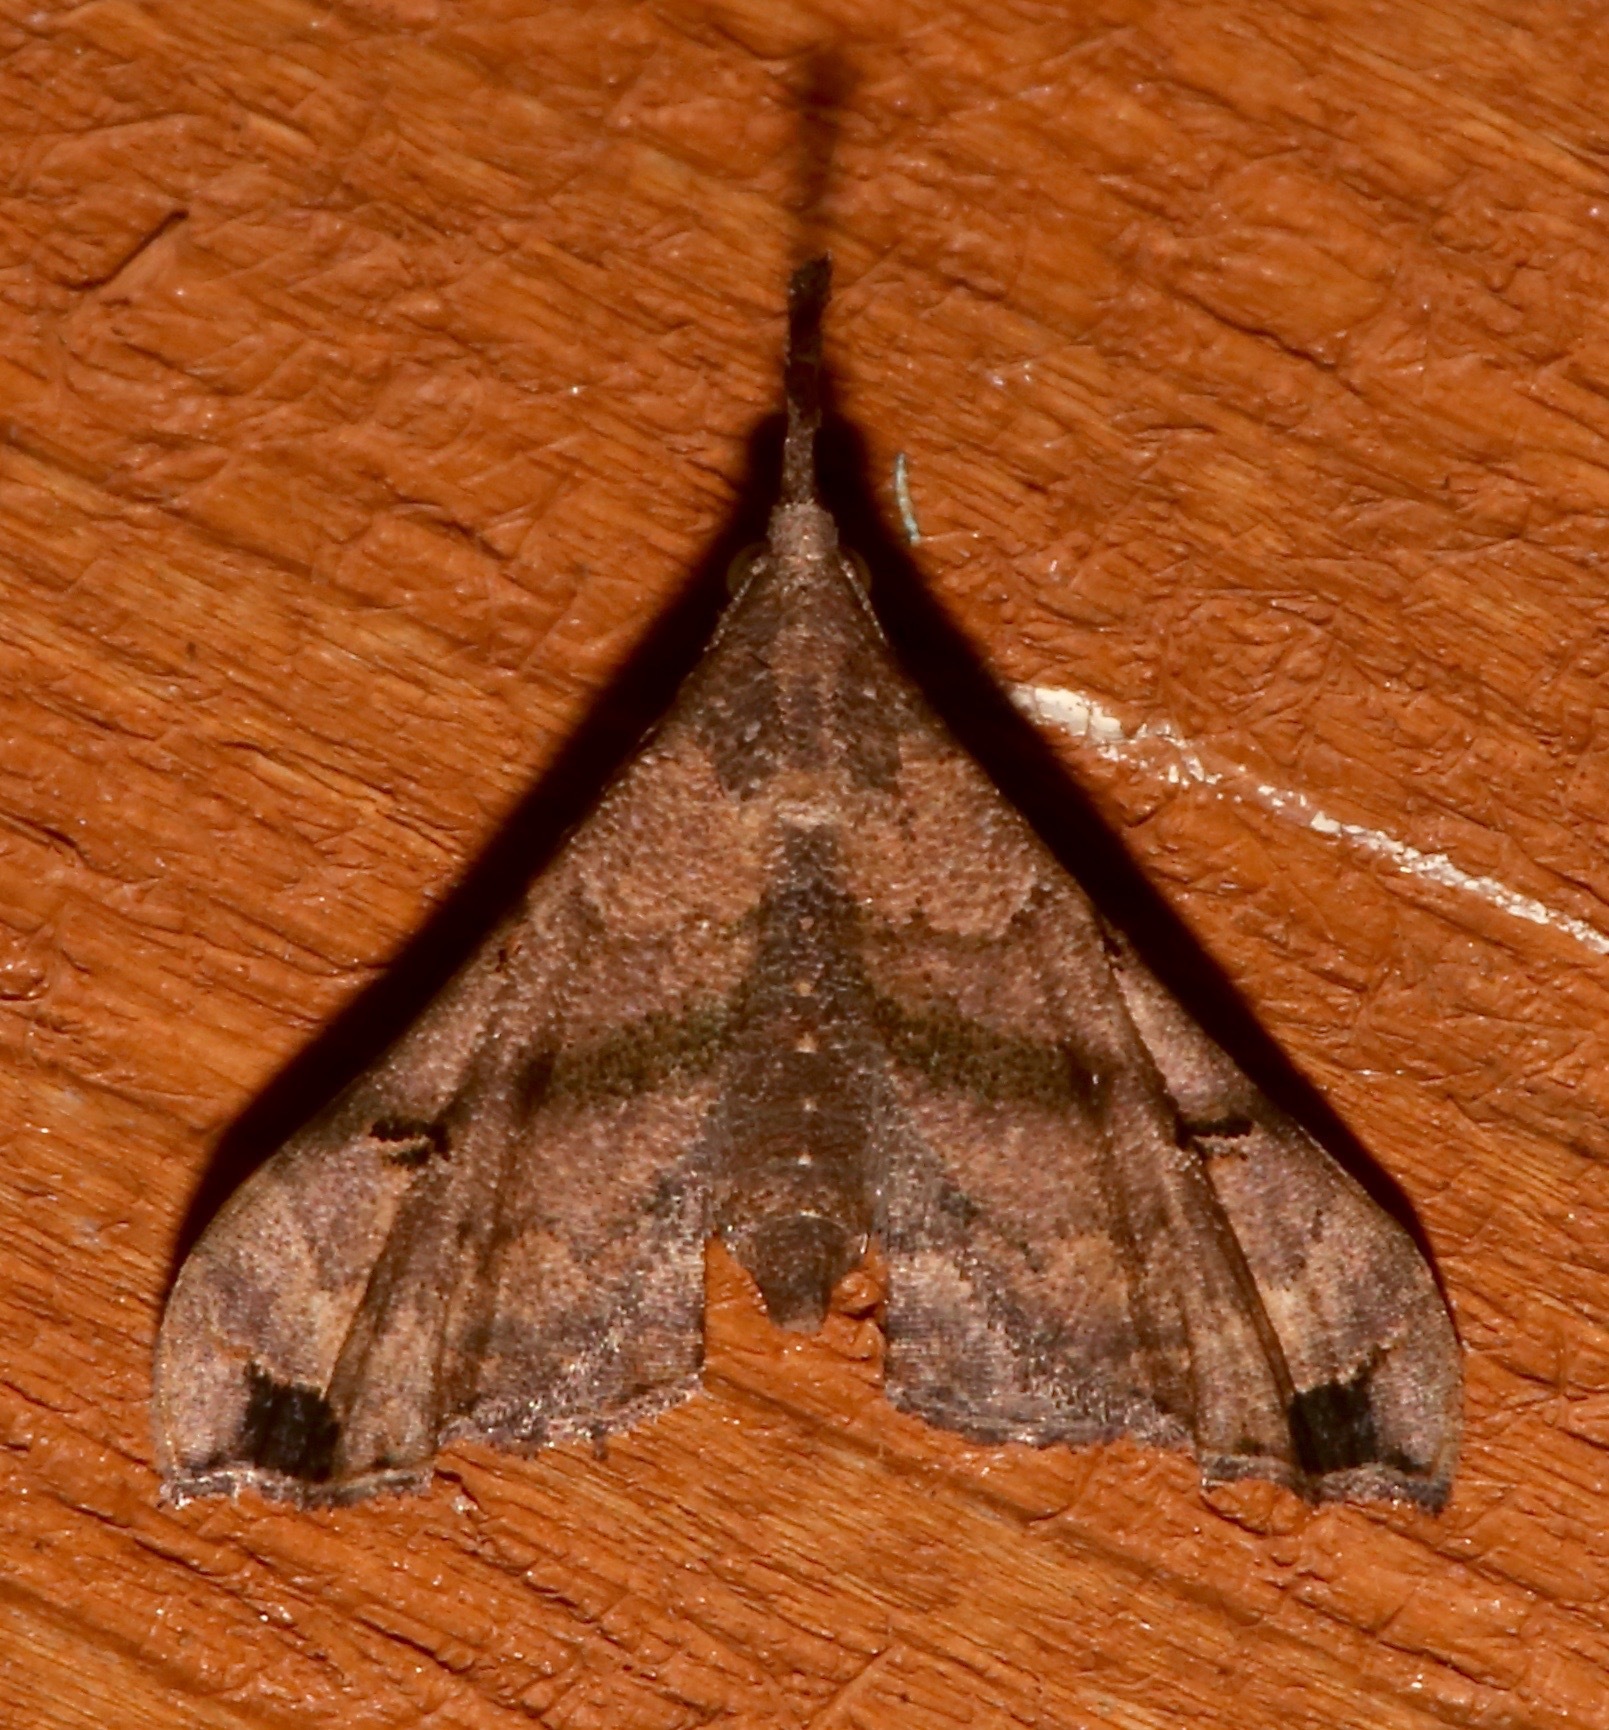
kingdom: Animalia
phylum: Arthropoda
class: Insecta
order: Lepidoptera
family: Erebidae
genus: Palthis
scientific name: Palthis asopialis
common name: Faint-spotted palthis moth
